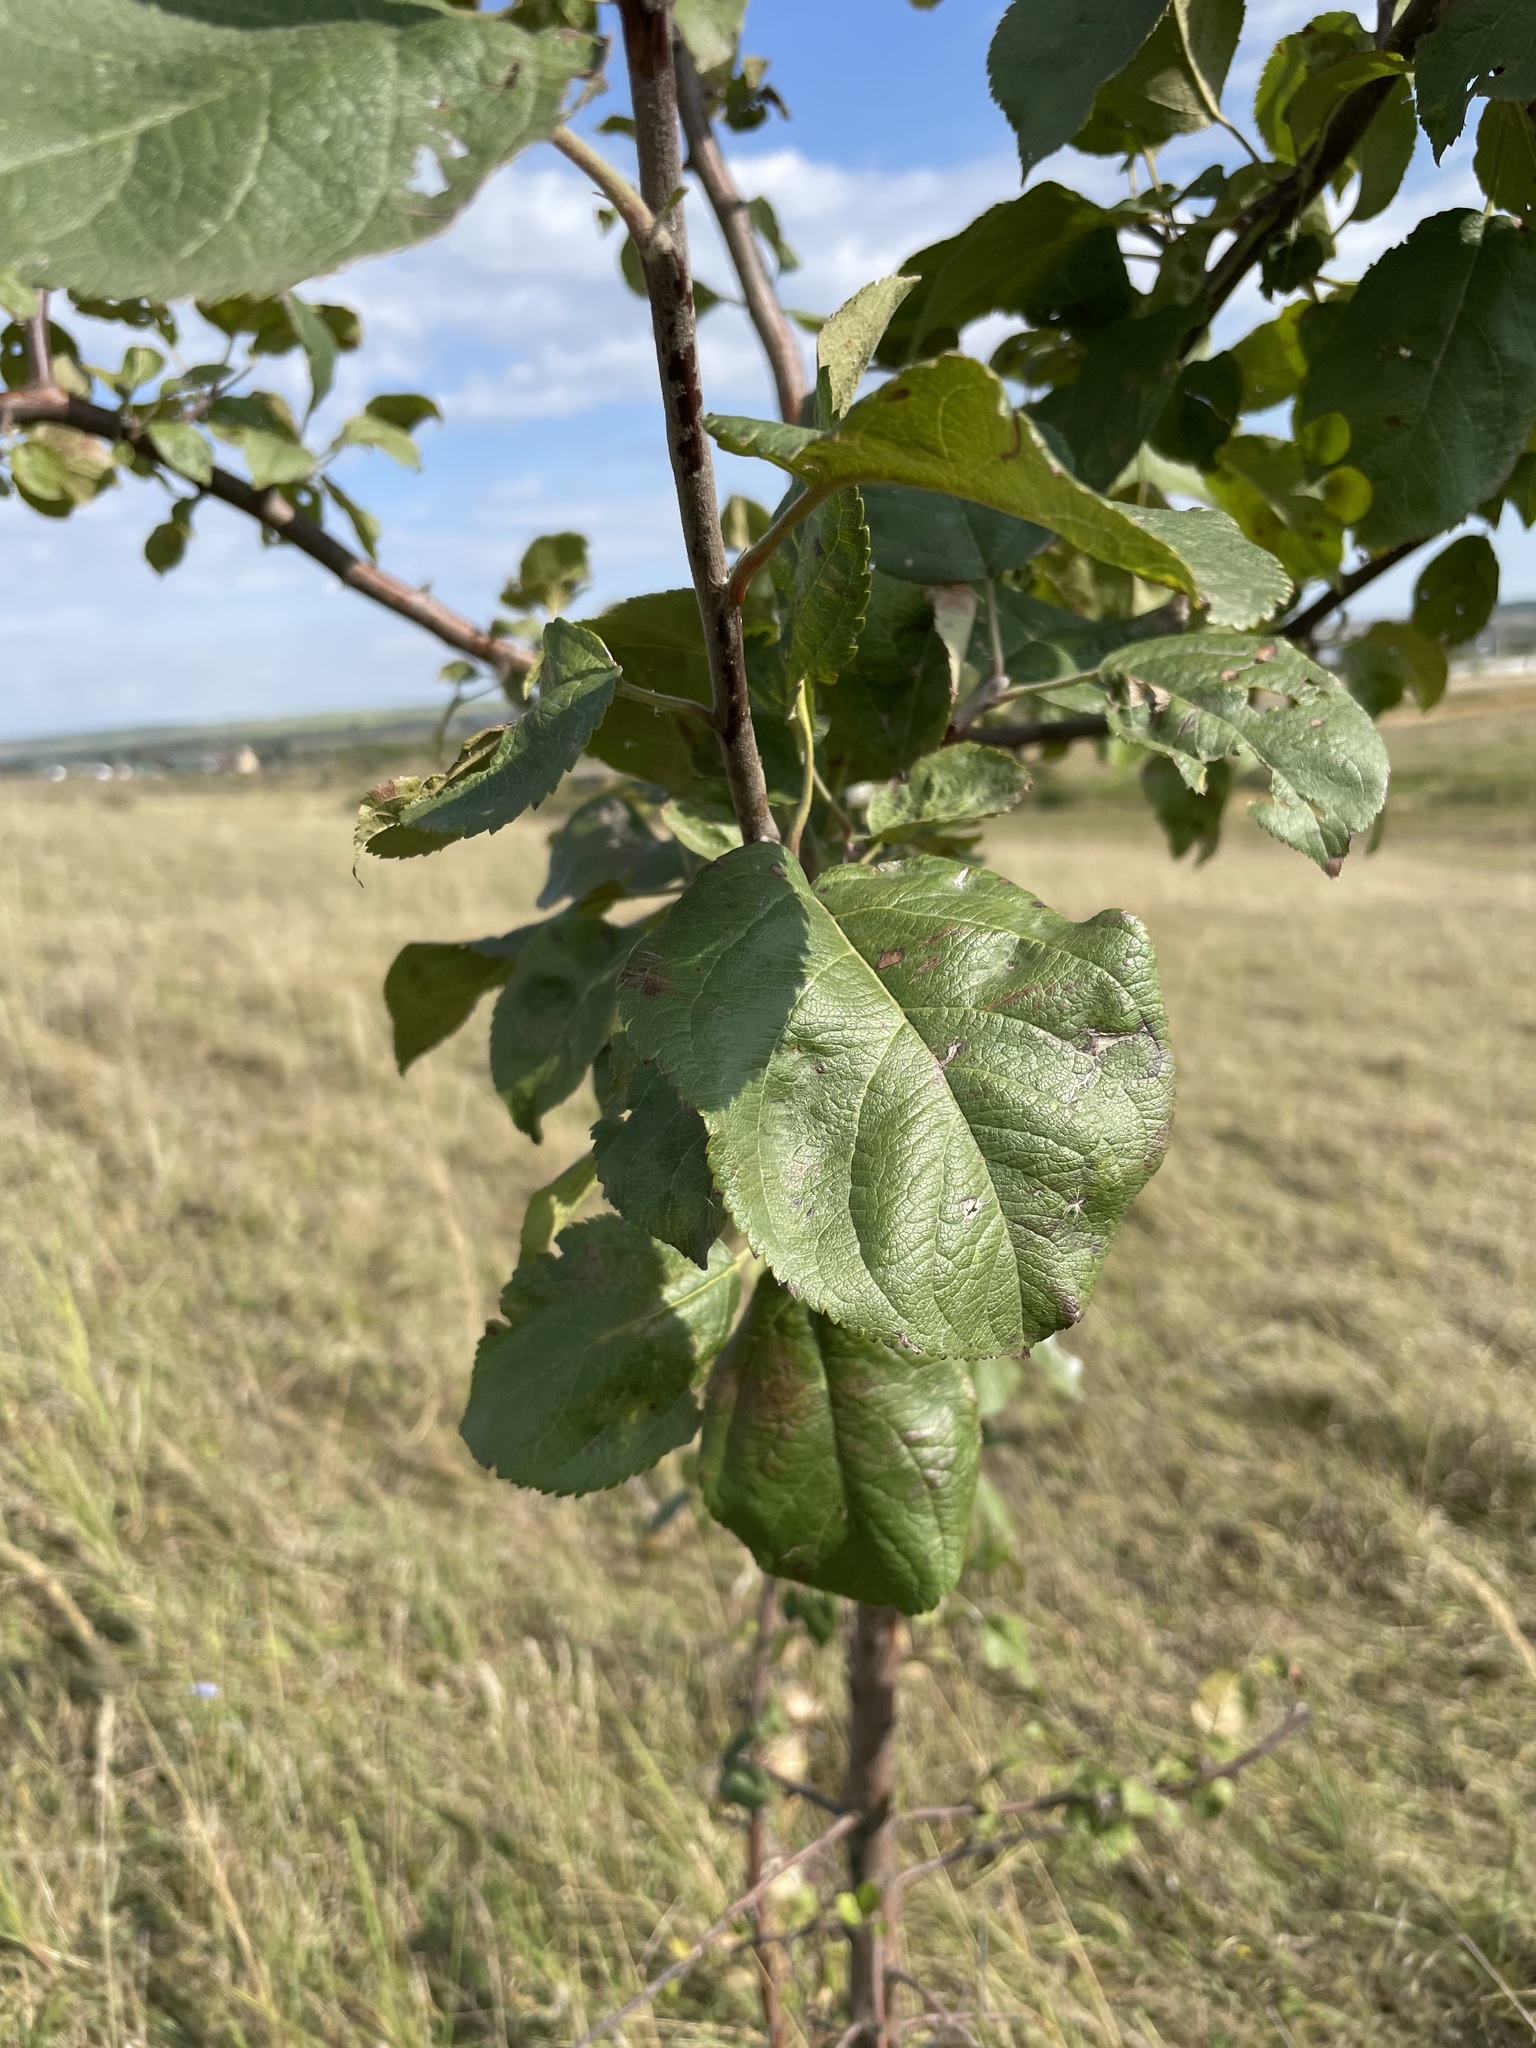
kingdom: Plantae
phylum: Tracheophyta
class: Magnoliopsida
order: Rosales
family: Rosaceae
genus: Malus
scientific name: Malus domestica
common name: Apple
